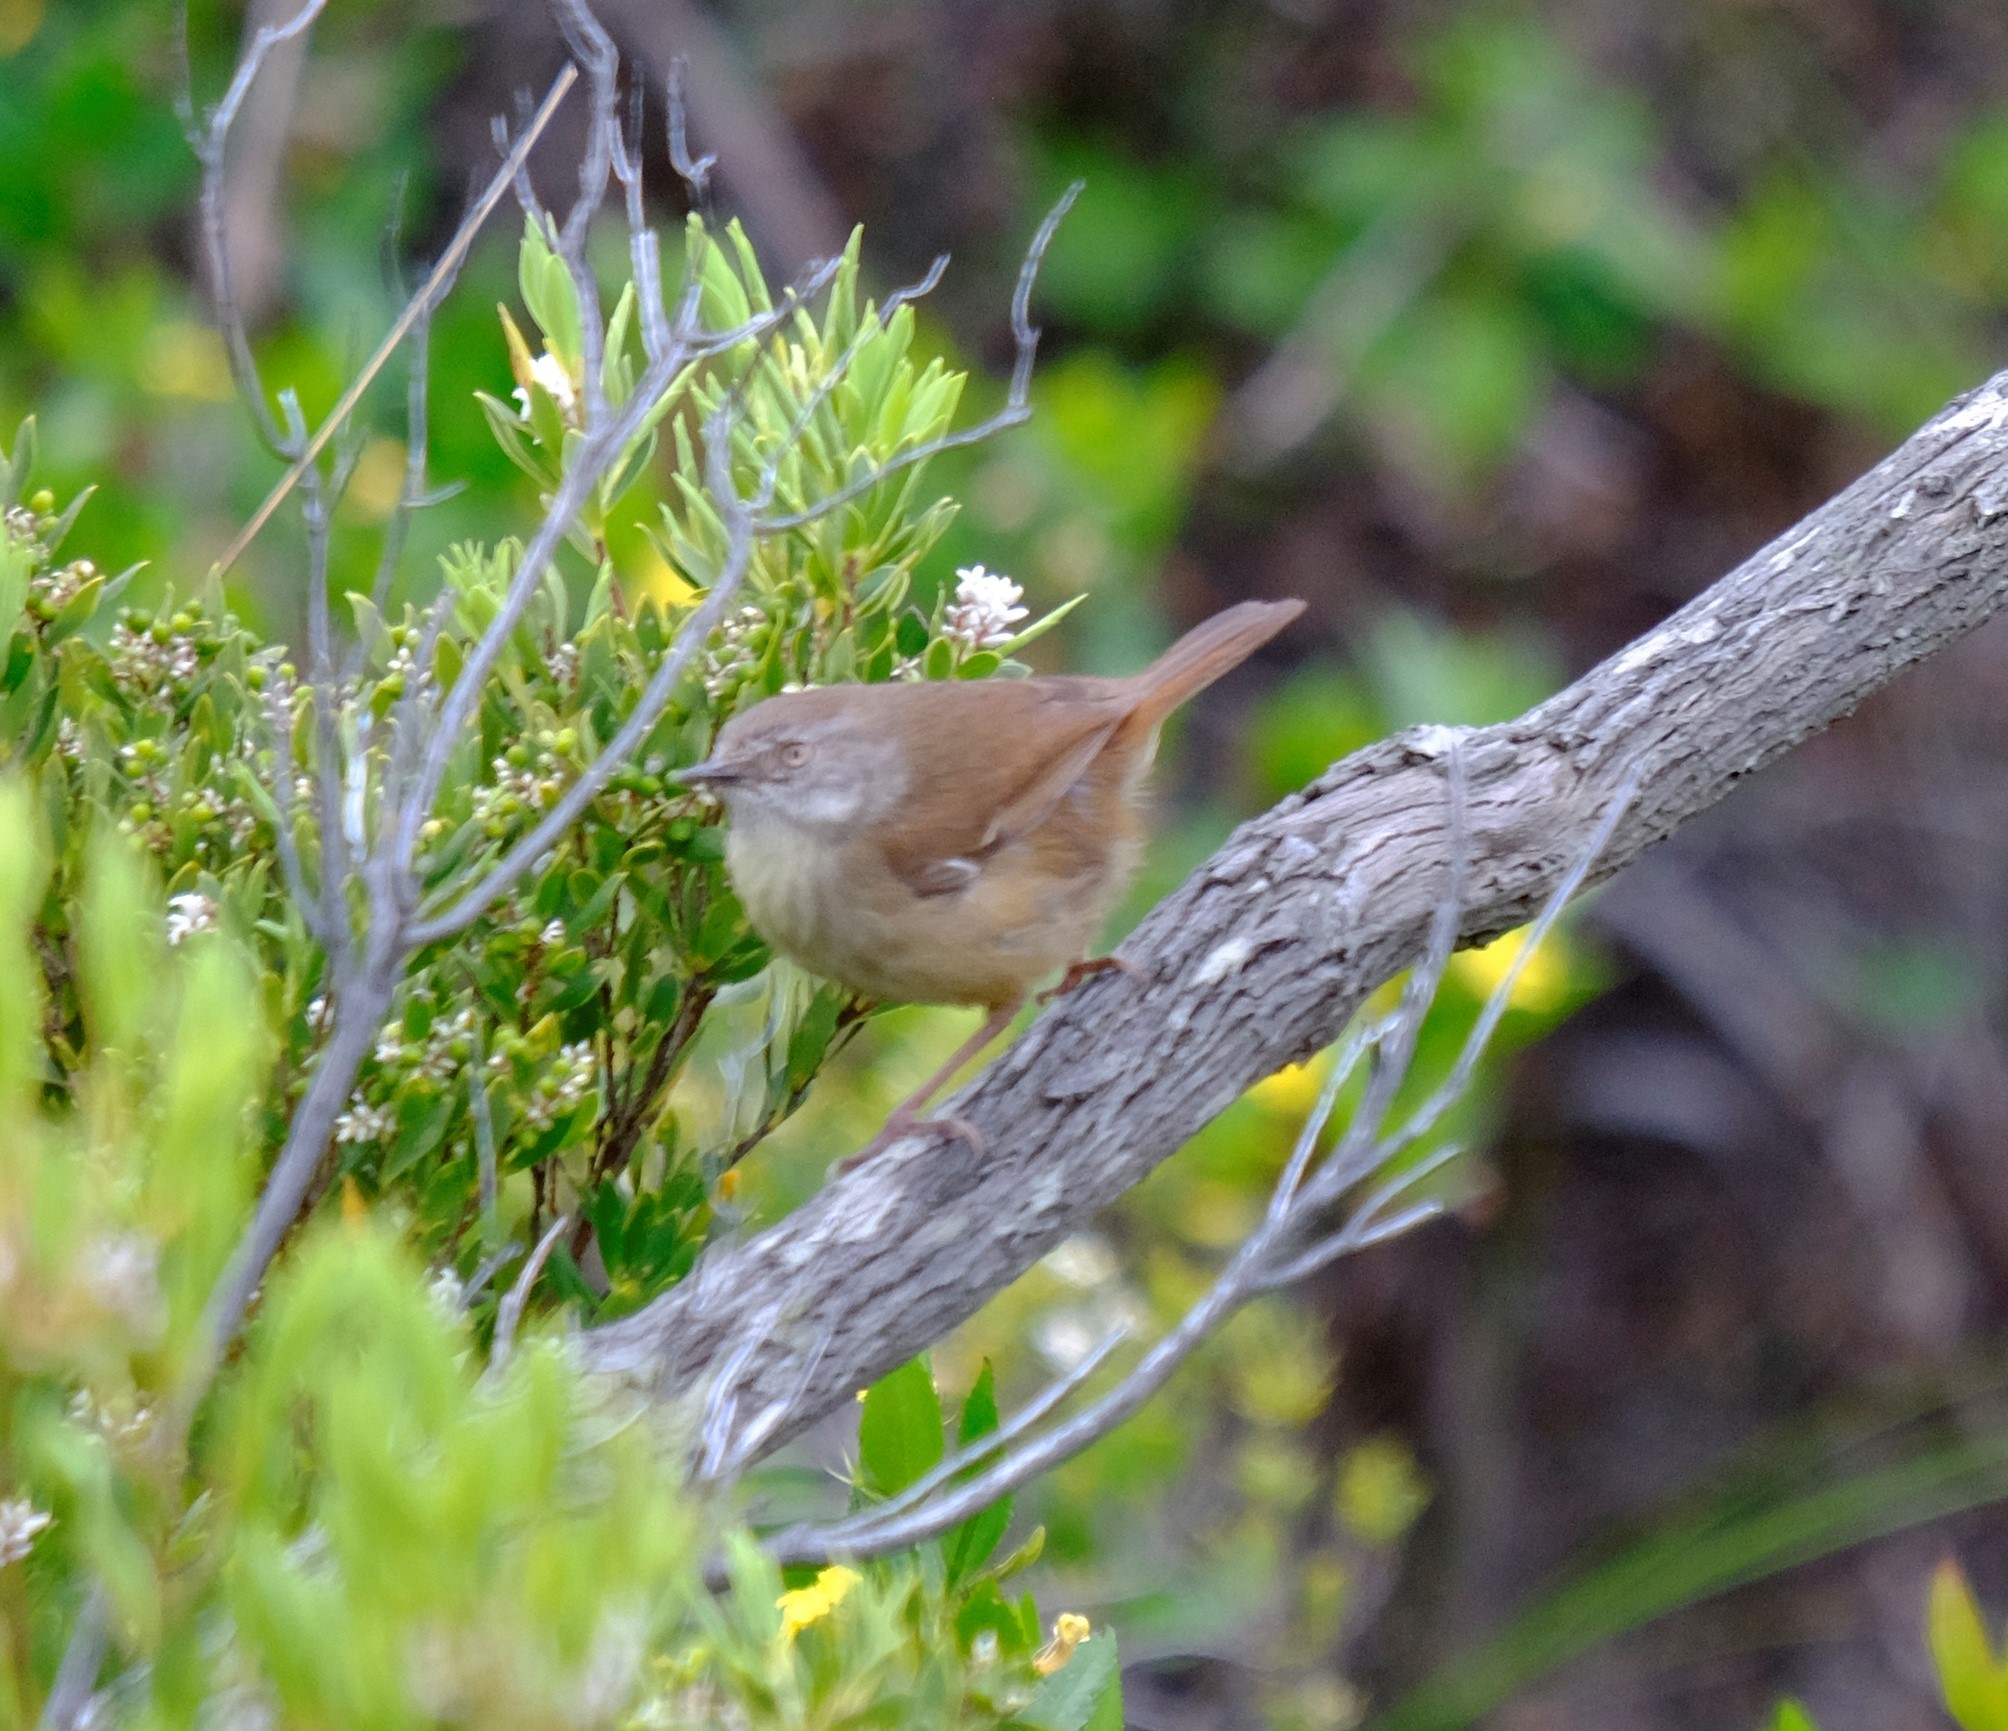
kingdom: Animalia
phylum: Chordata
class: Aves
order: Passeriformes
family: Acanthizidae
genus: Sericornis
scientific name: Sericornis frontalis
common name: White-browed scrubwren
